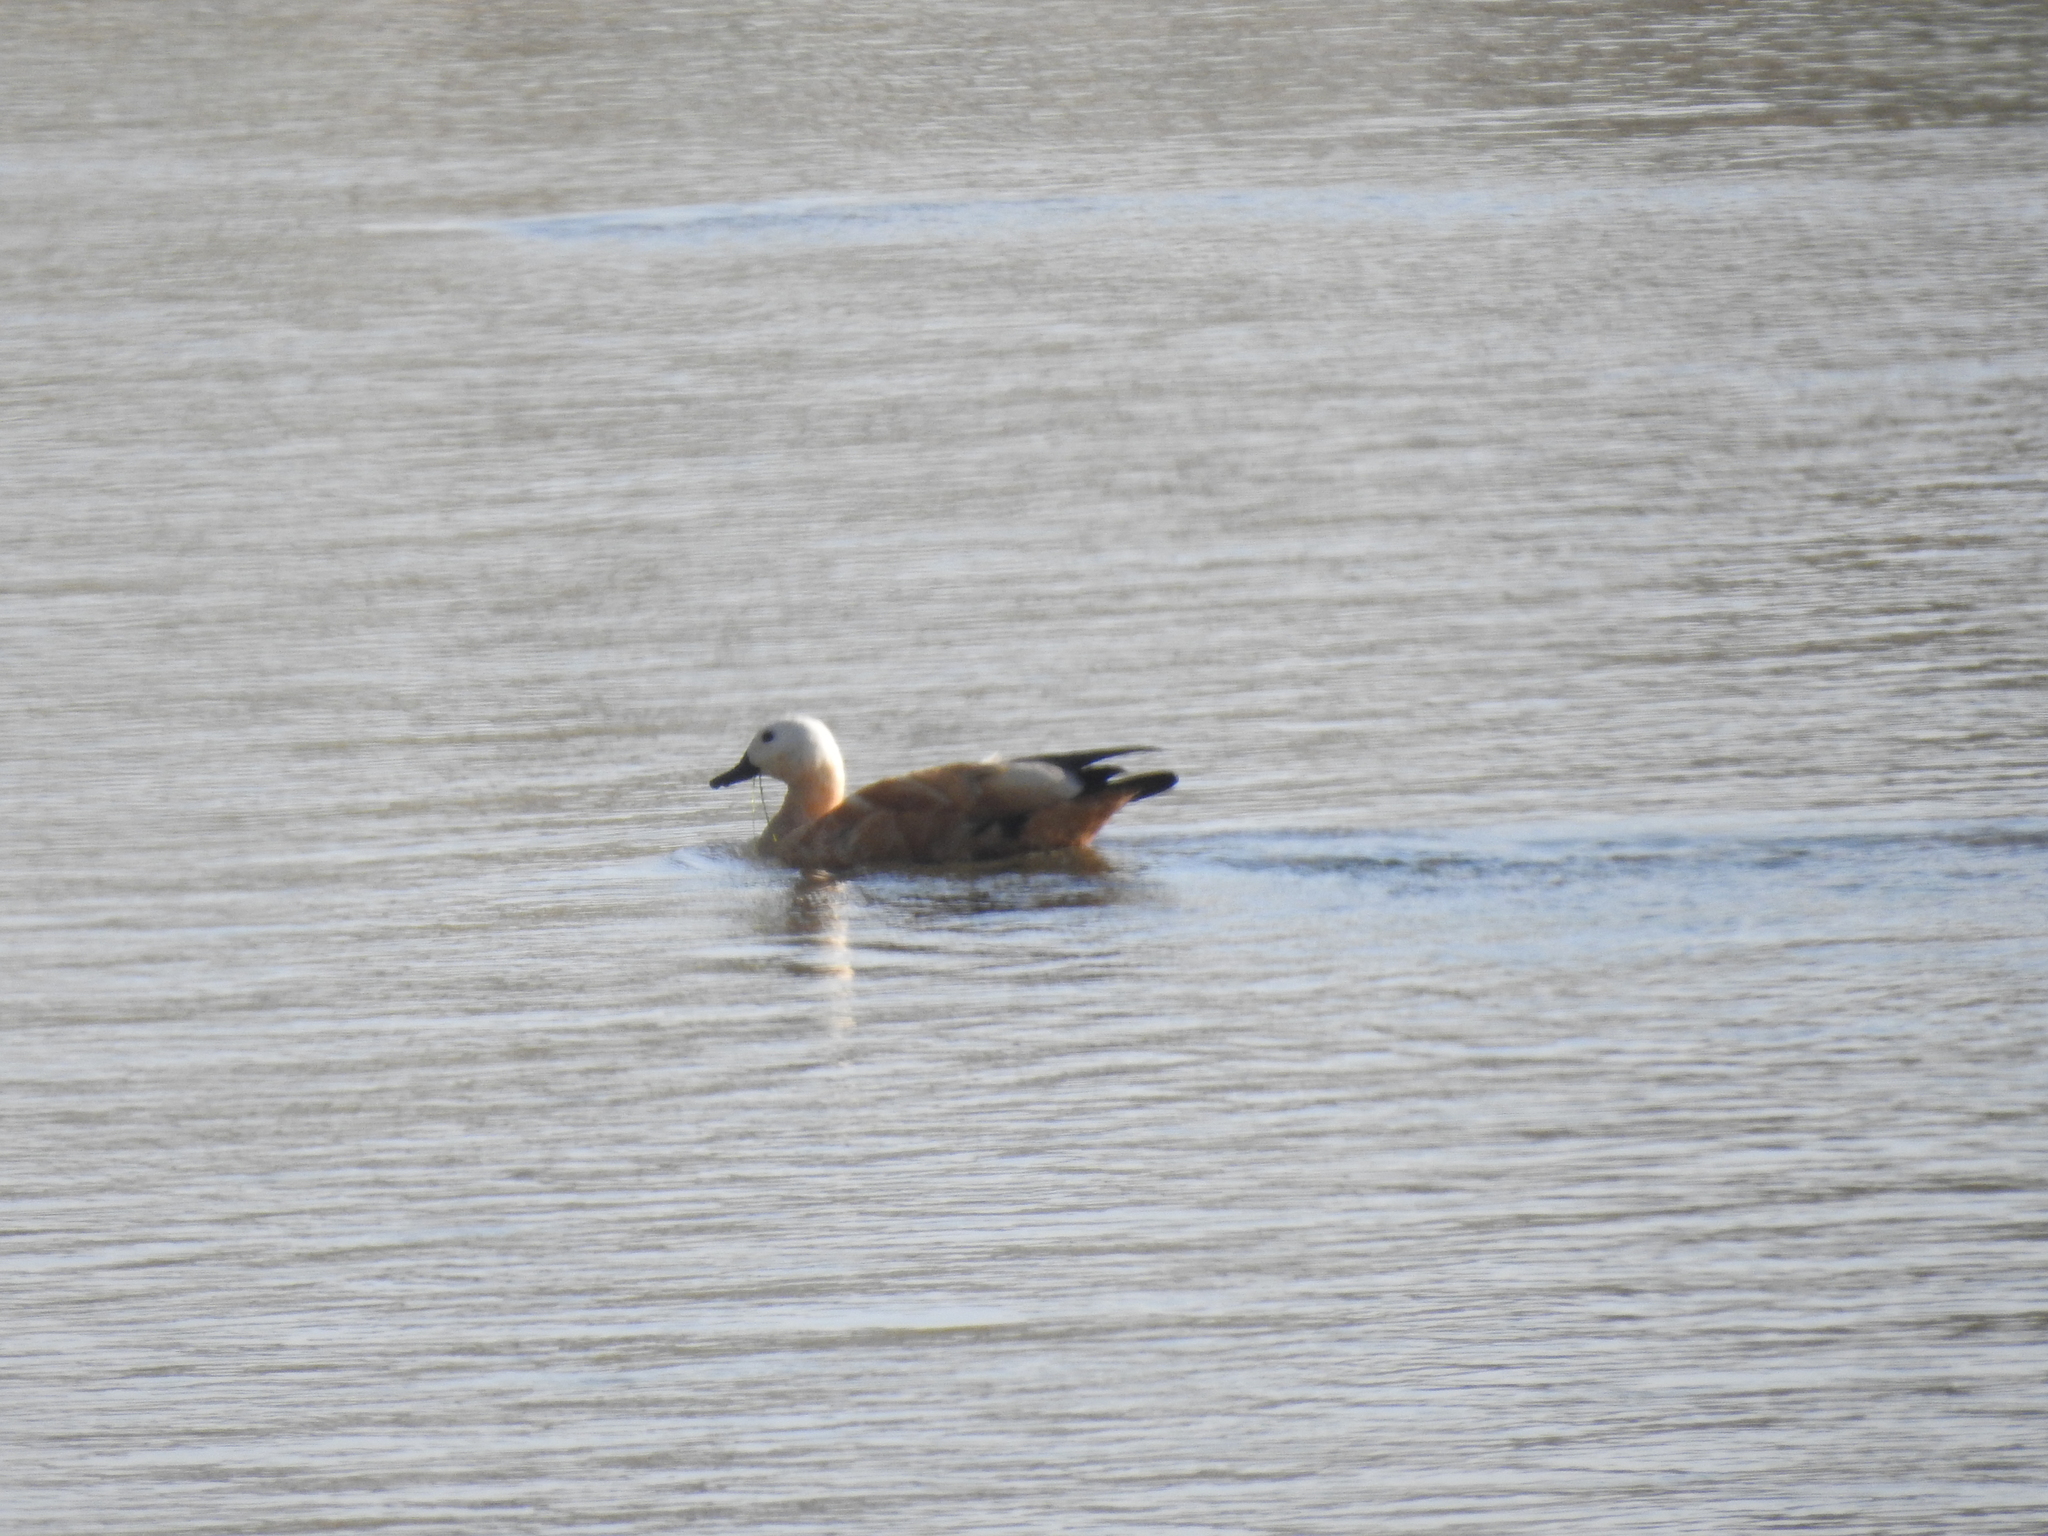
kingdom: Animalia
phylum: Chordata
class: Aves
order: Anseriformes
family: Anatidae
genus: Tadorna
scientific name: Tadorna ferruginea
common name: Ruddy shelduck
